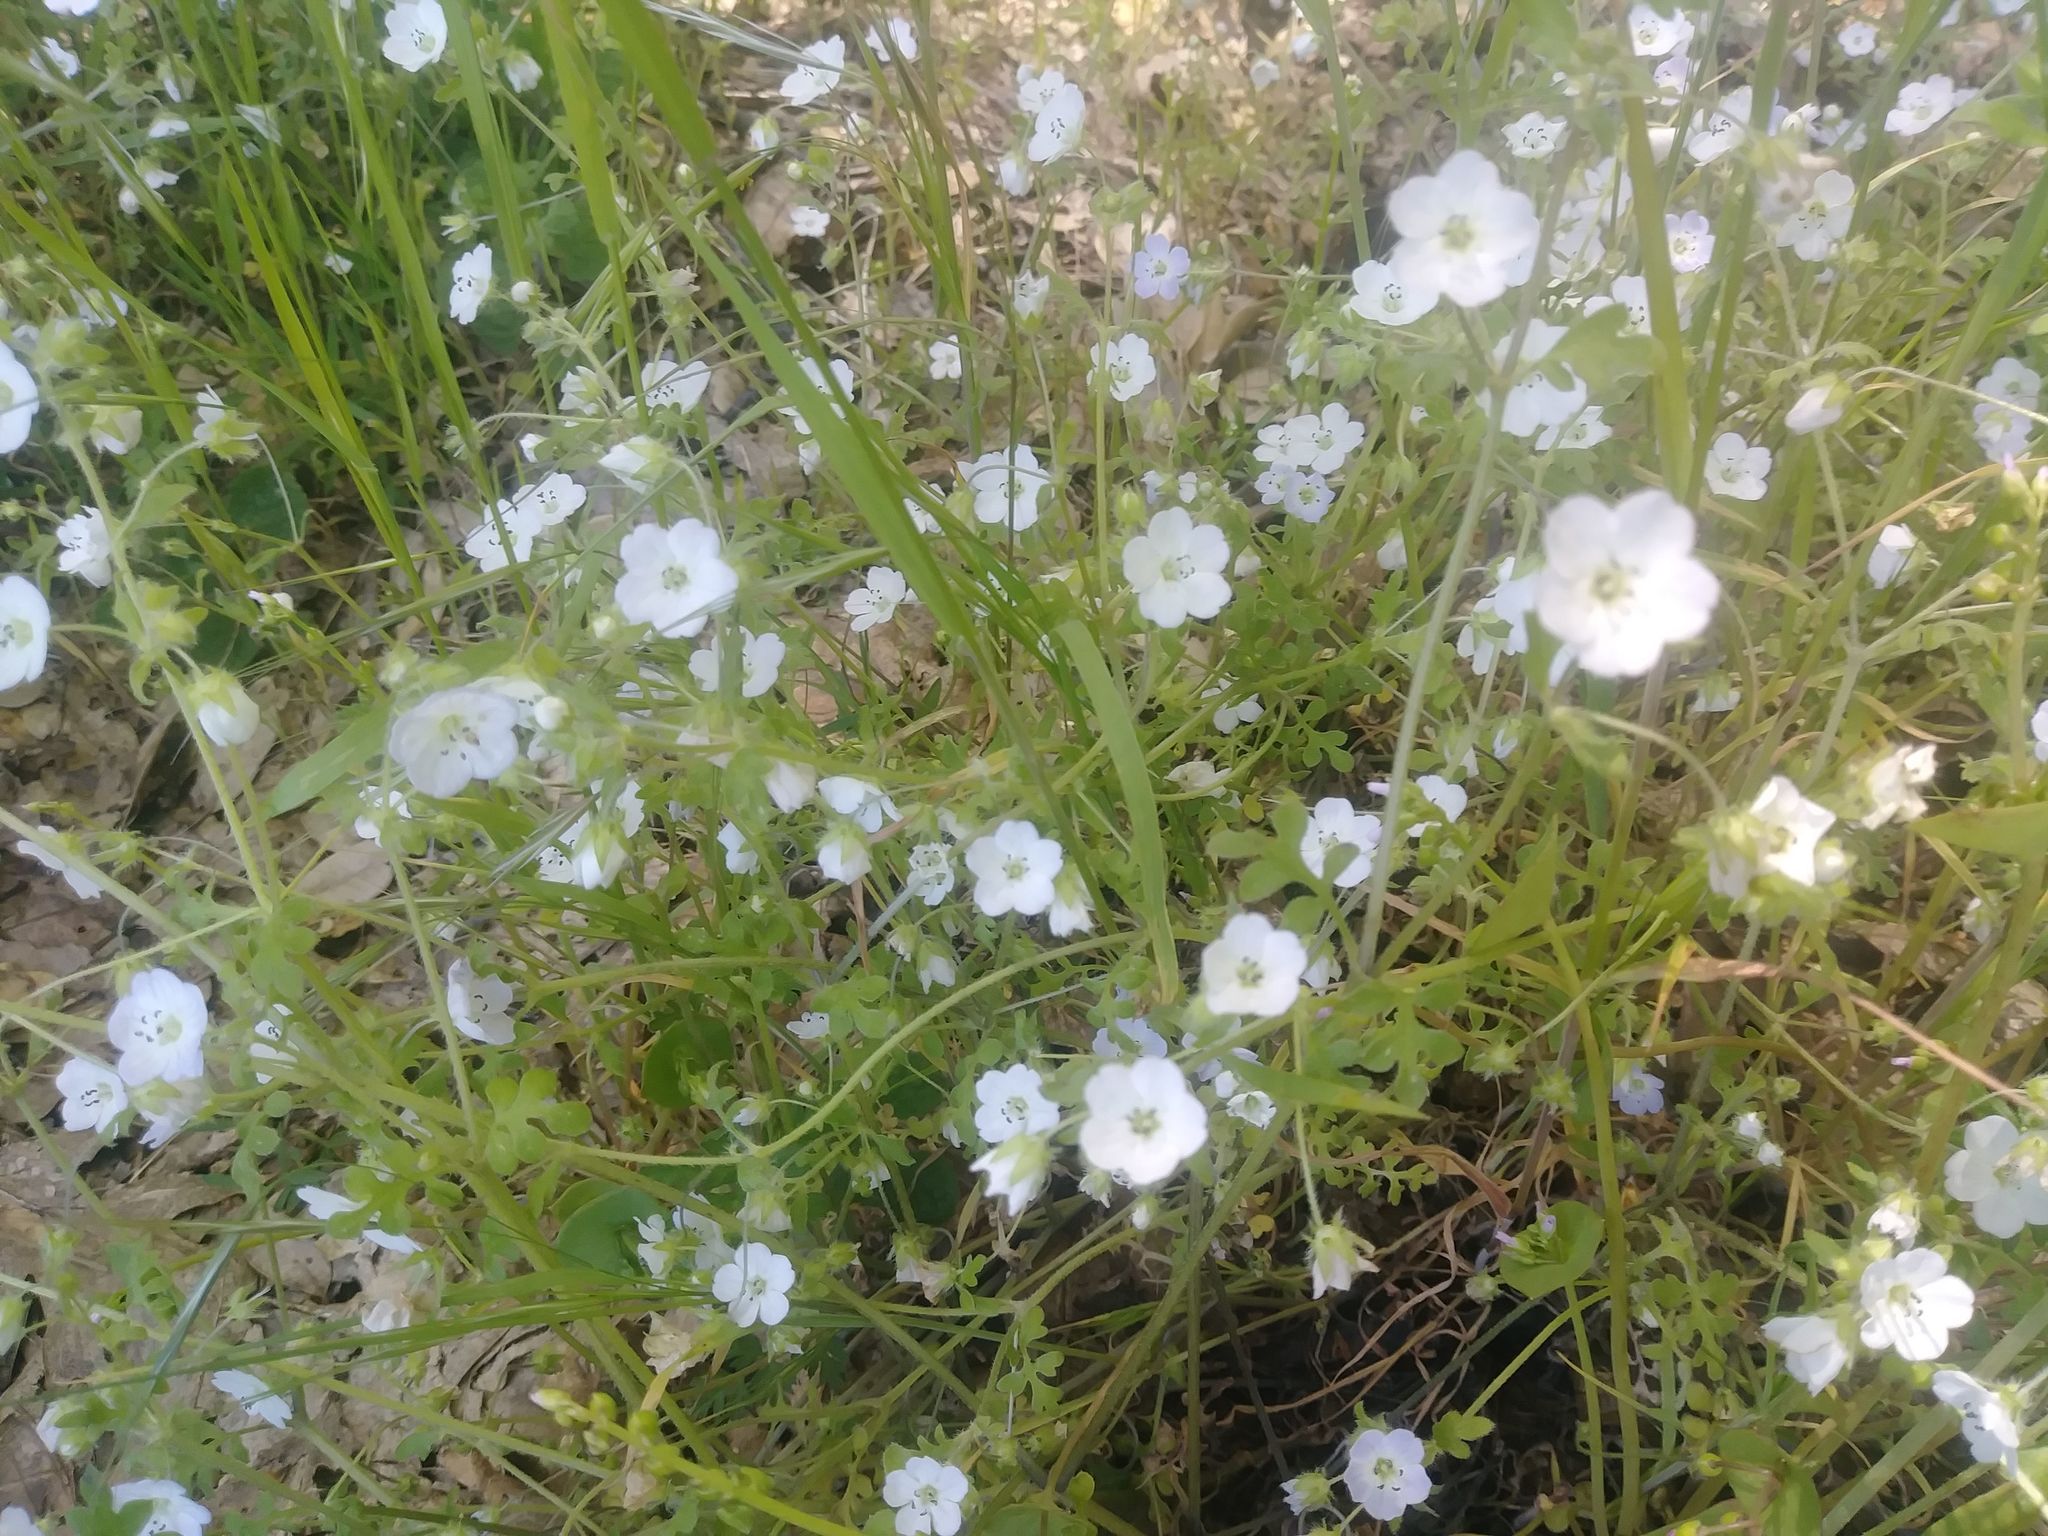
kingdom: Plantae
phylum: Tracheophyta
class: Magnoliopsida
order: Boraginales
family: Hydrophyllaceae
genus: Nemophila
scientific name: Nemophila heterophylla
